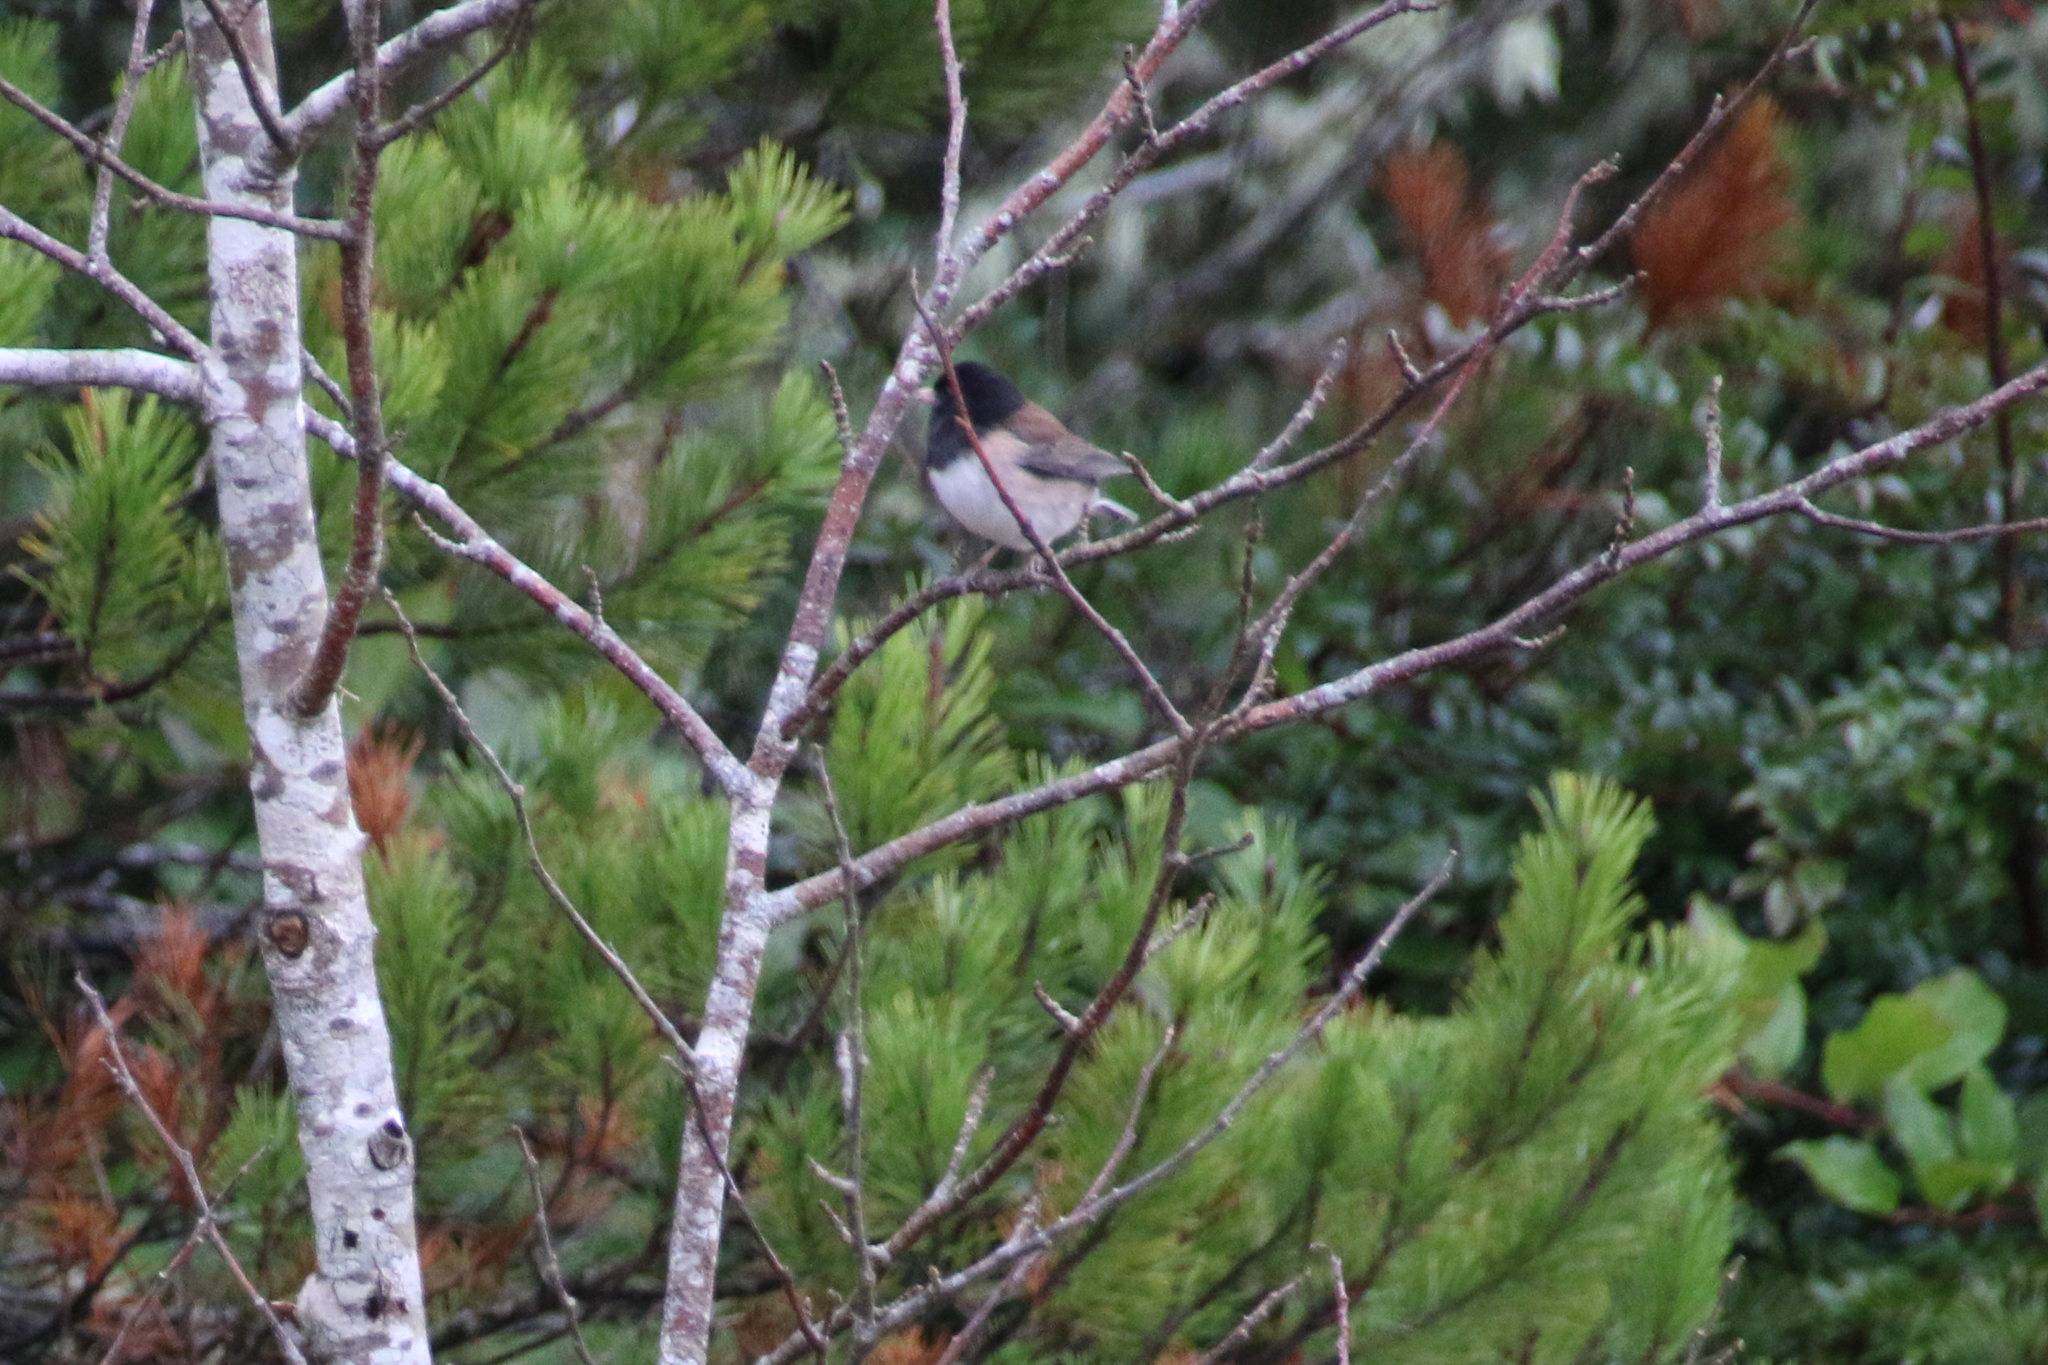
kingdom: Animalia
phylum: Chordata
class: Aves
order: Passeriformes
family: Passerellidae
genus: Junco
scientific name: Junco hyemalis
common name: Dark-eyed junco
